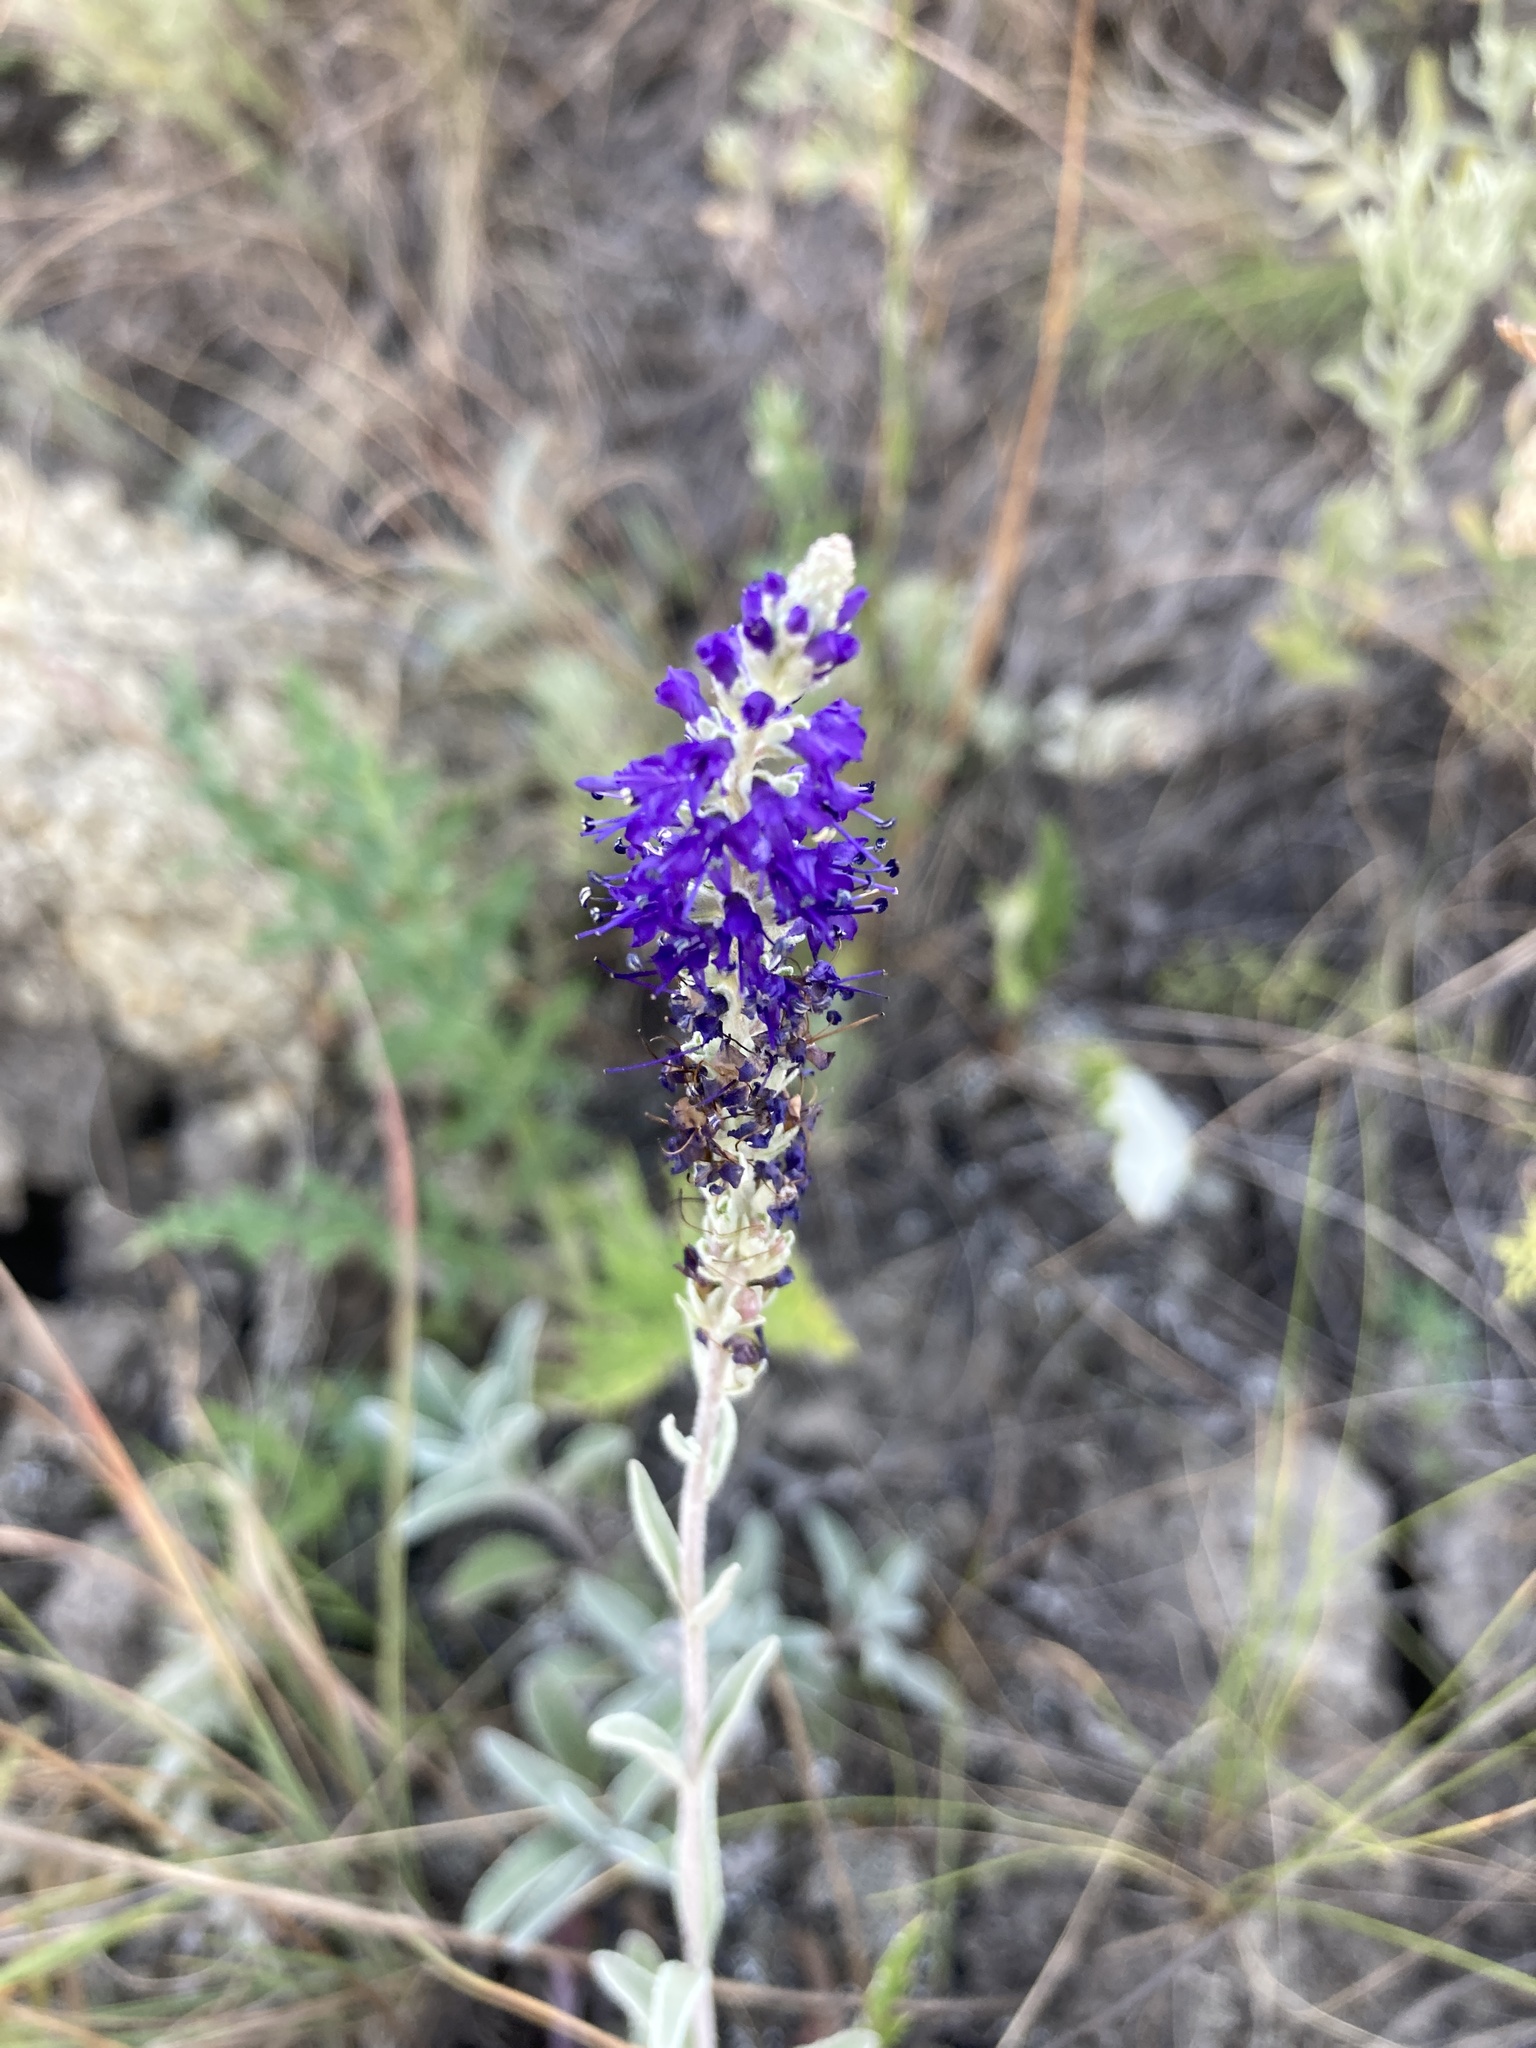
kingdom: Plantae
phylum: Tracheophyta
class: Magnoliopsida
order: Lamiales
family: Plantaginaceae
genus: Veronica
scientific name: Veronica incana
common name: Silver speedwell
